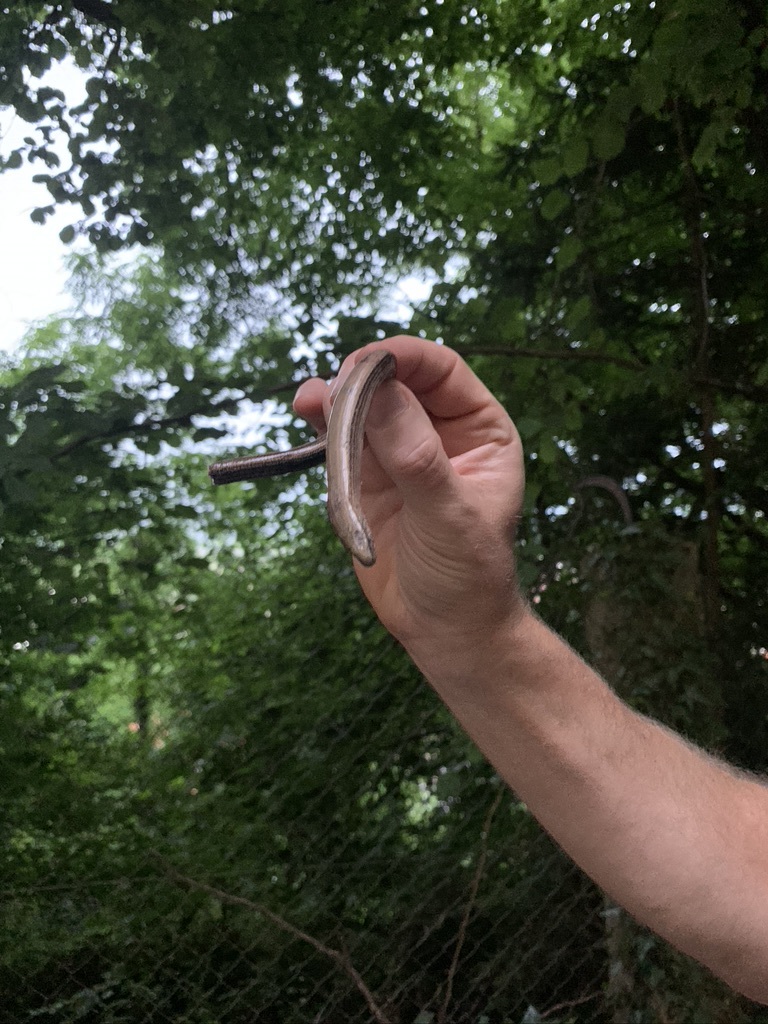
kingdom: Animalia
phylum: Chordata
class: Squamata
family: Anguidae
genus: Anguis
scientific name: Anguis fragilis
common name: Slow worm
